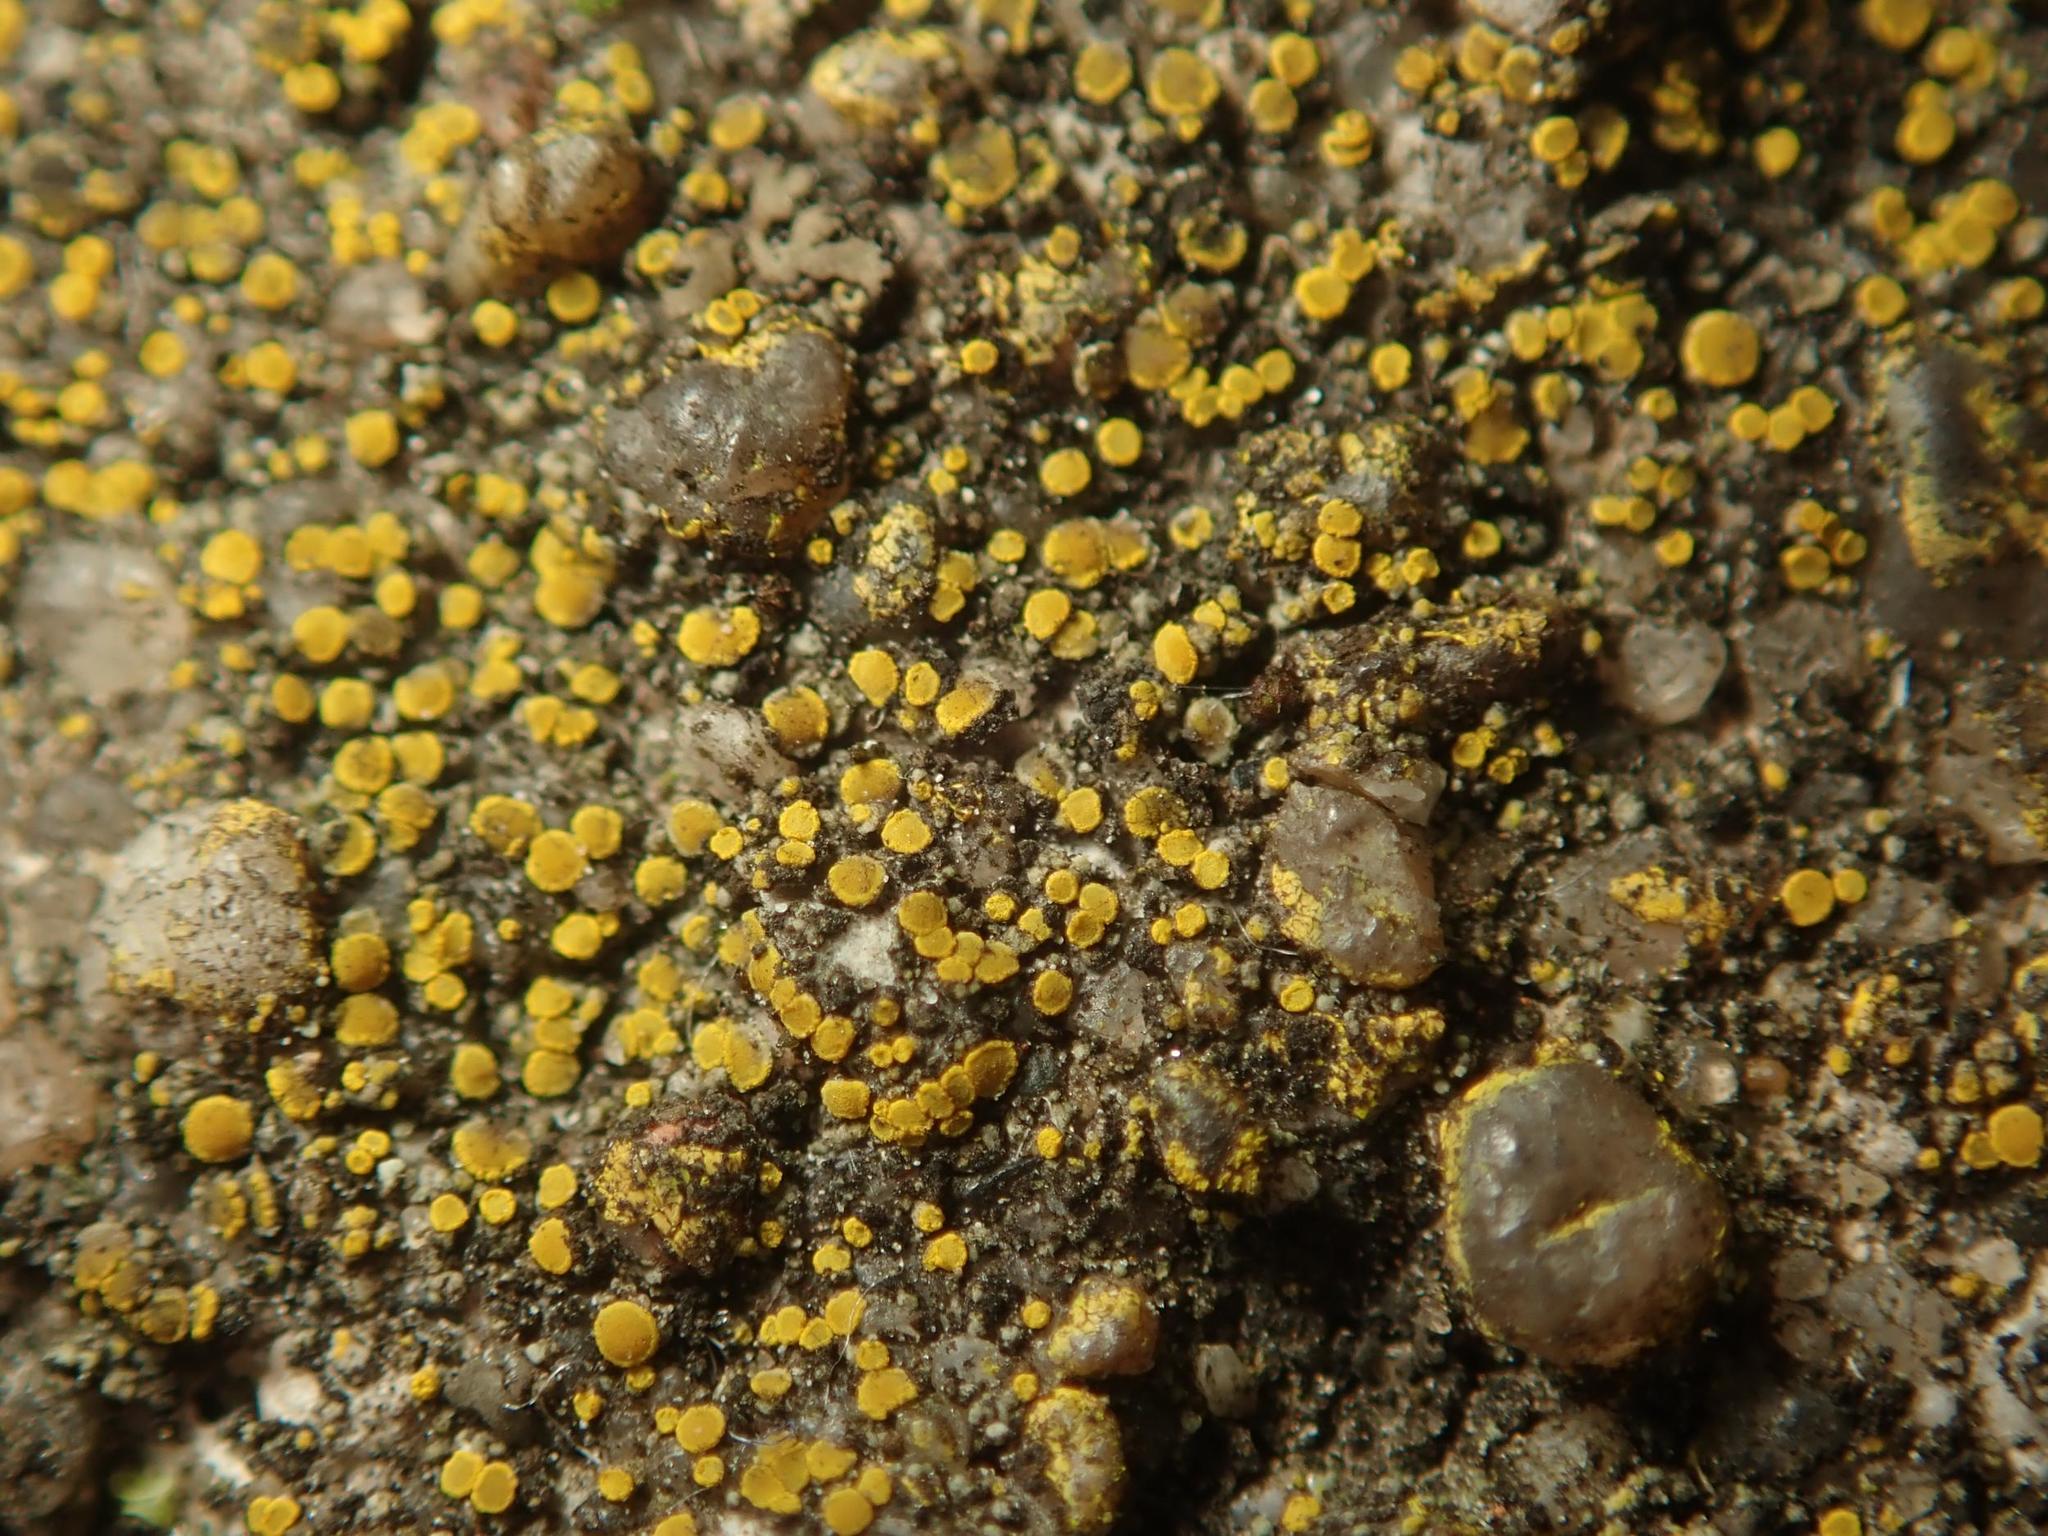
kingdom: Fungi
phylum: Ascomycota
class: Candelariomycetes
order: Candelariales
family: Candelariaceae
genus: Candelariella
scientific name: Candelariella aurella
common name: Hidden goldspeck lichen
